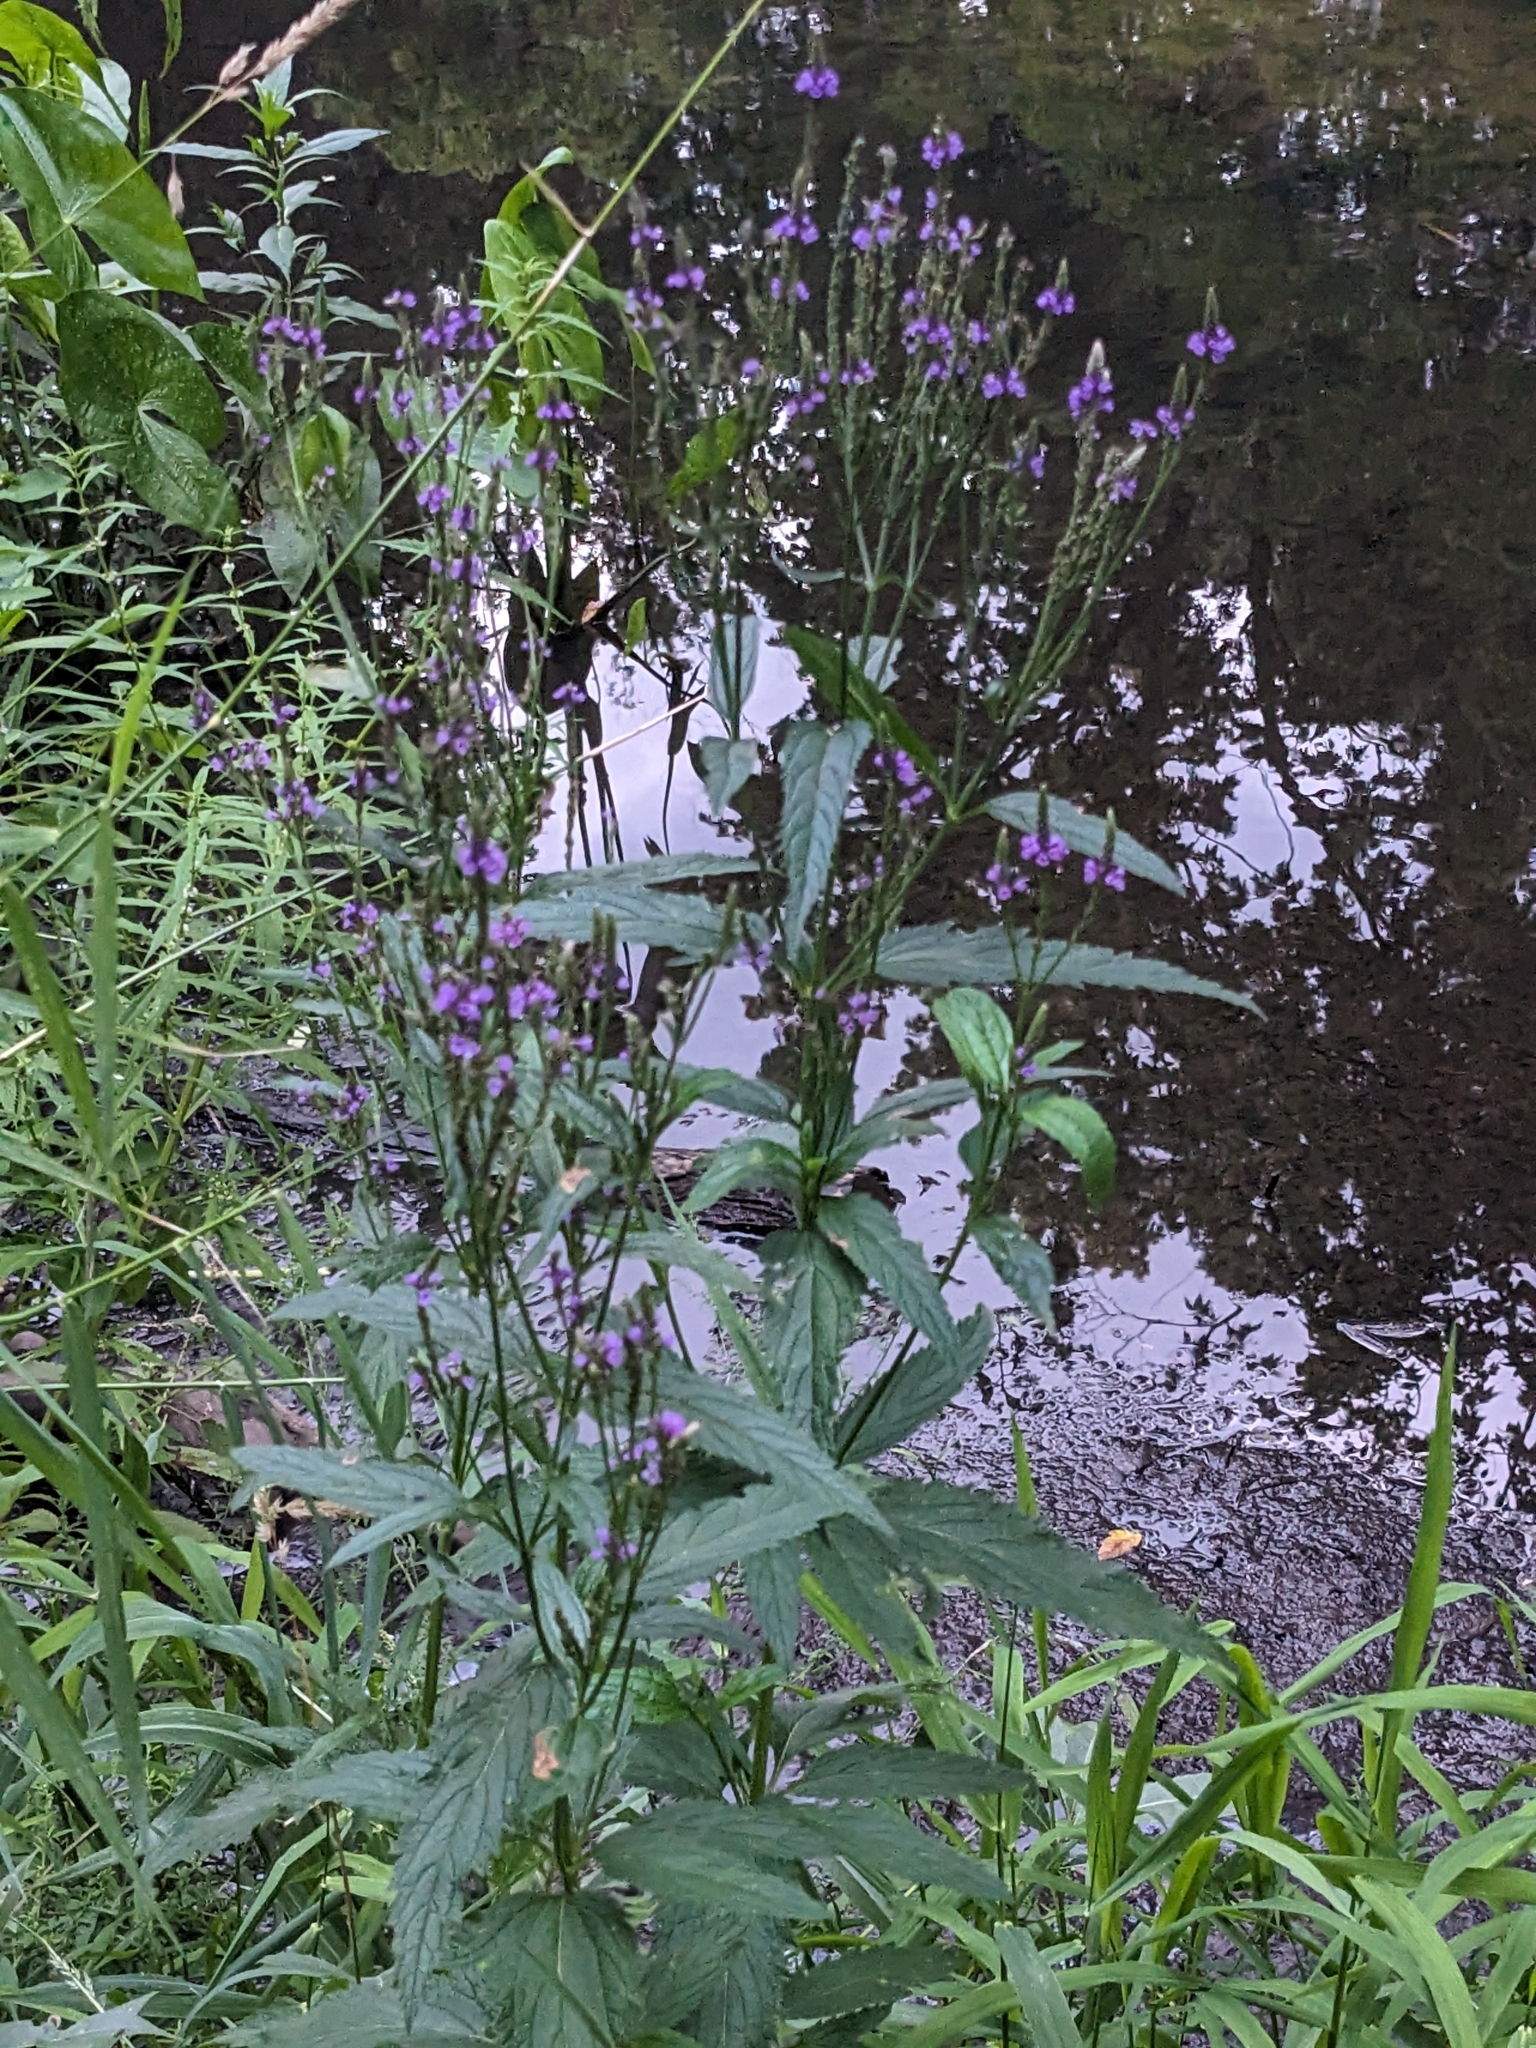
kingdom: Plantae
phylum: Tracheophyta
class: Magnoliopsida
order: Lamiales
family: Verbenaceae
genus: Verbena
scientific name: Verbena hastata
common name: American blue vervain
